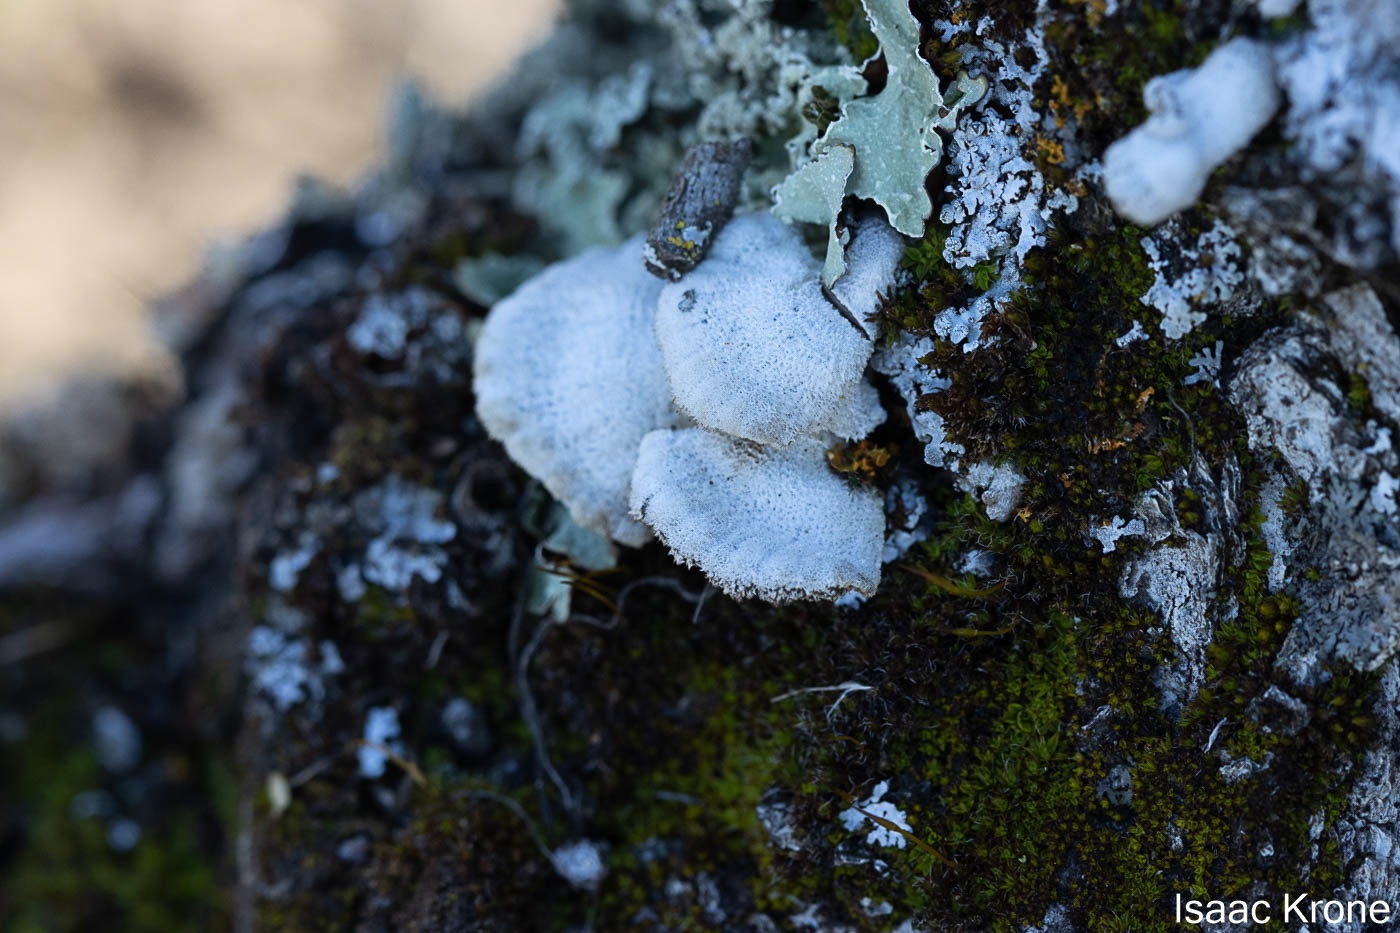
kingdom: Fungi
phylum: Basidiomycota
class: Agaricomycetes
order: Polyporales
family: Polyporaceae
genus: Lenzites
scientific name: Lenzites betulinus
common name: Birch mazegill
